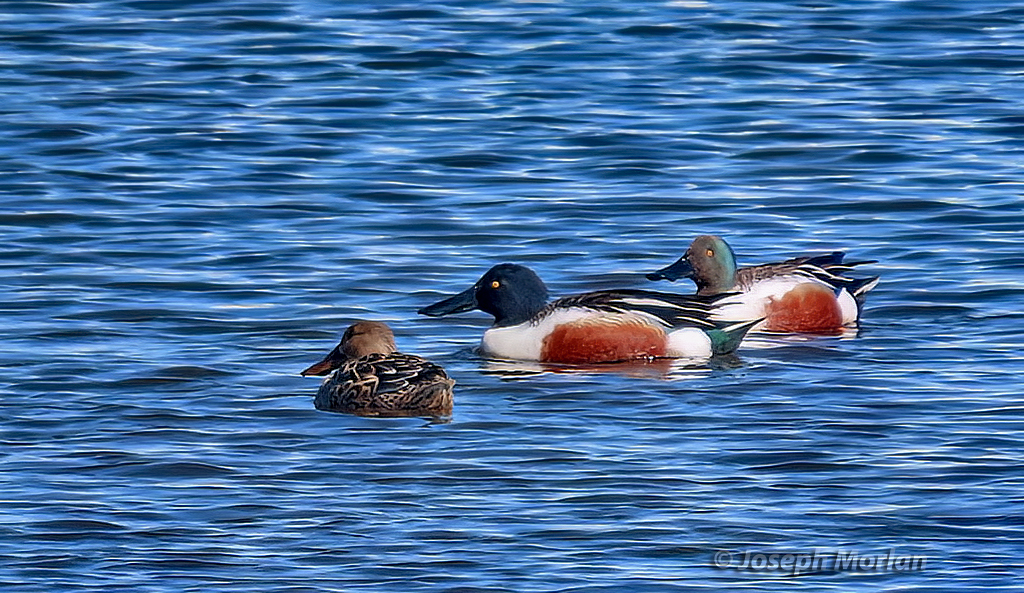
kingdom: Animalia
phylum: Chordata
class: Aves
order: Anseriformes
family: Anatidae
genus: Spatula
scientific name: Spatula clypeata
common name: Northern shoveler
